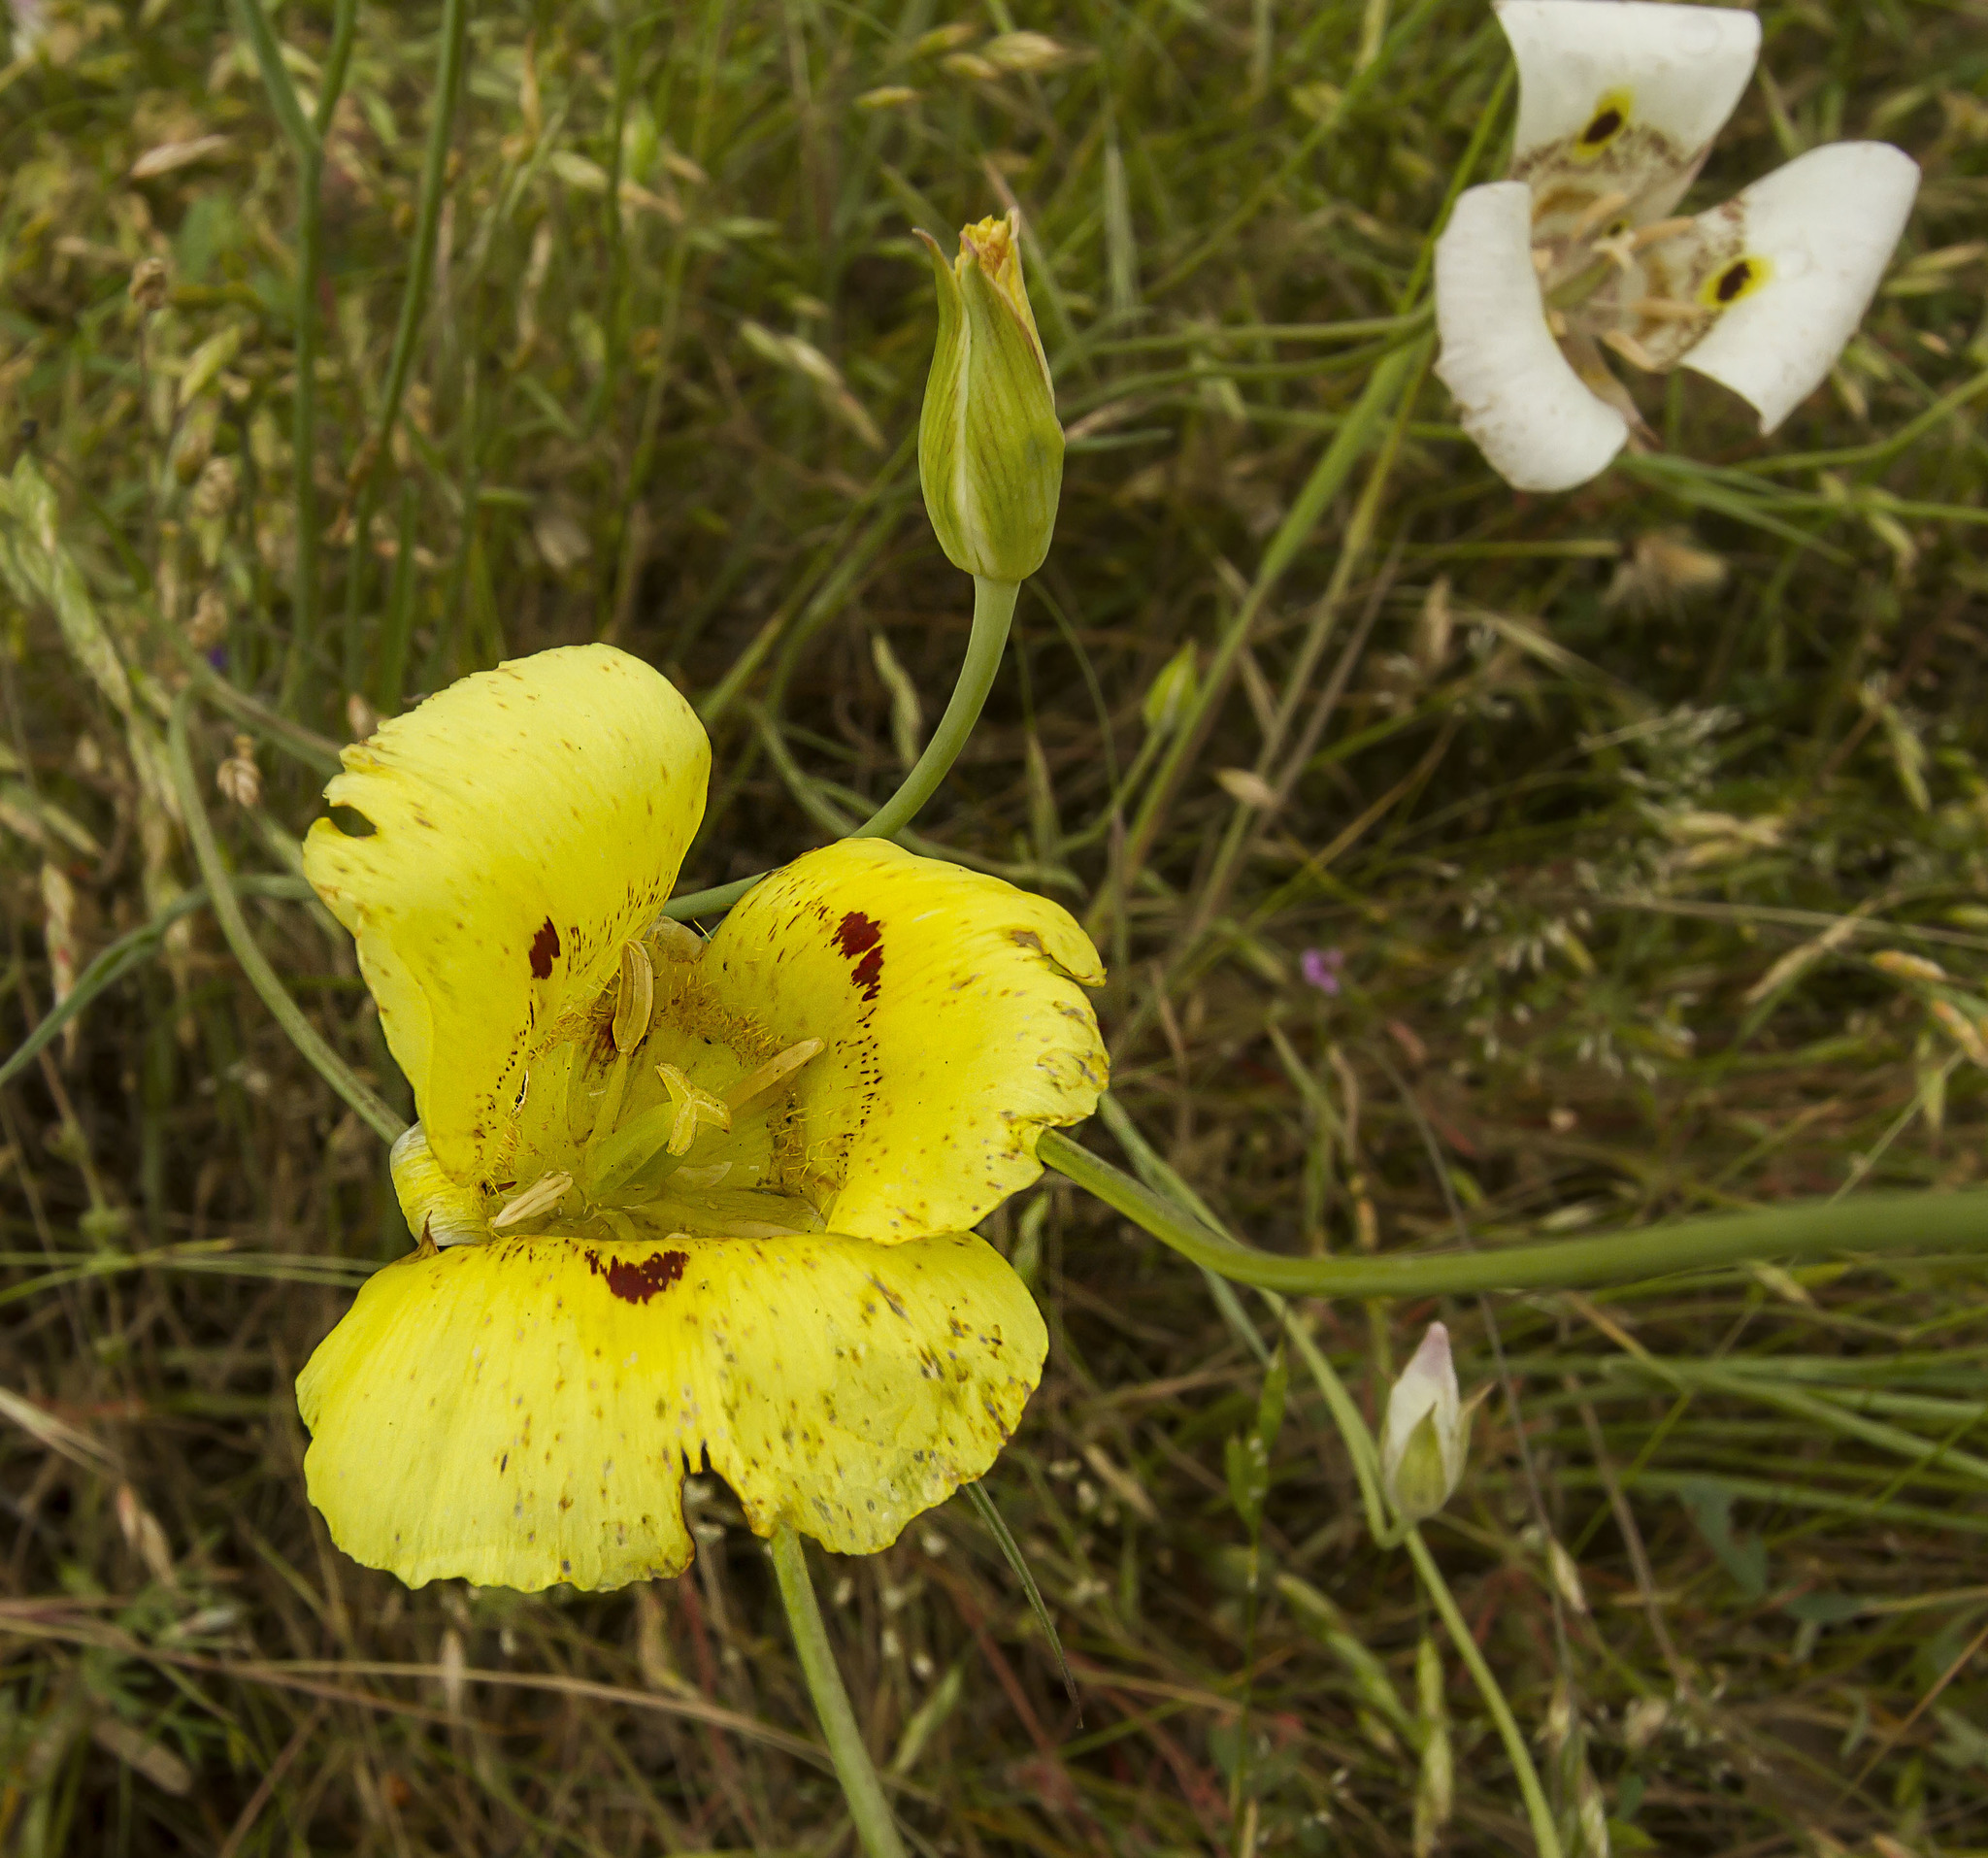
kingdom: Plantae
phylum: Tracheophyta
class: Liliopsida
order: Liliales
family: Liliaceae
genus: Calochortus
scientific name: Calochortus luteus
